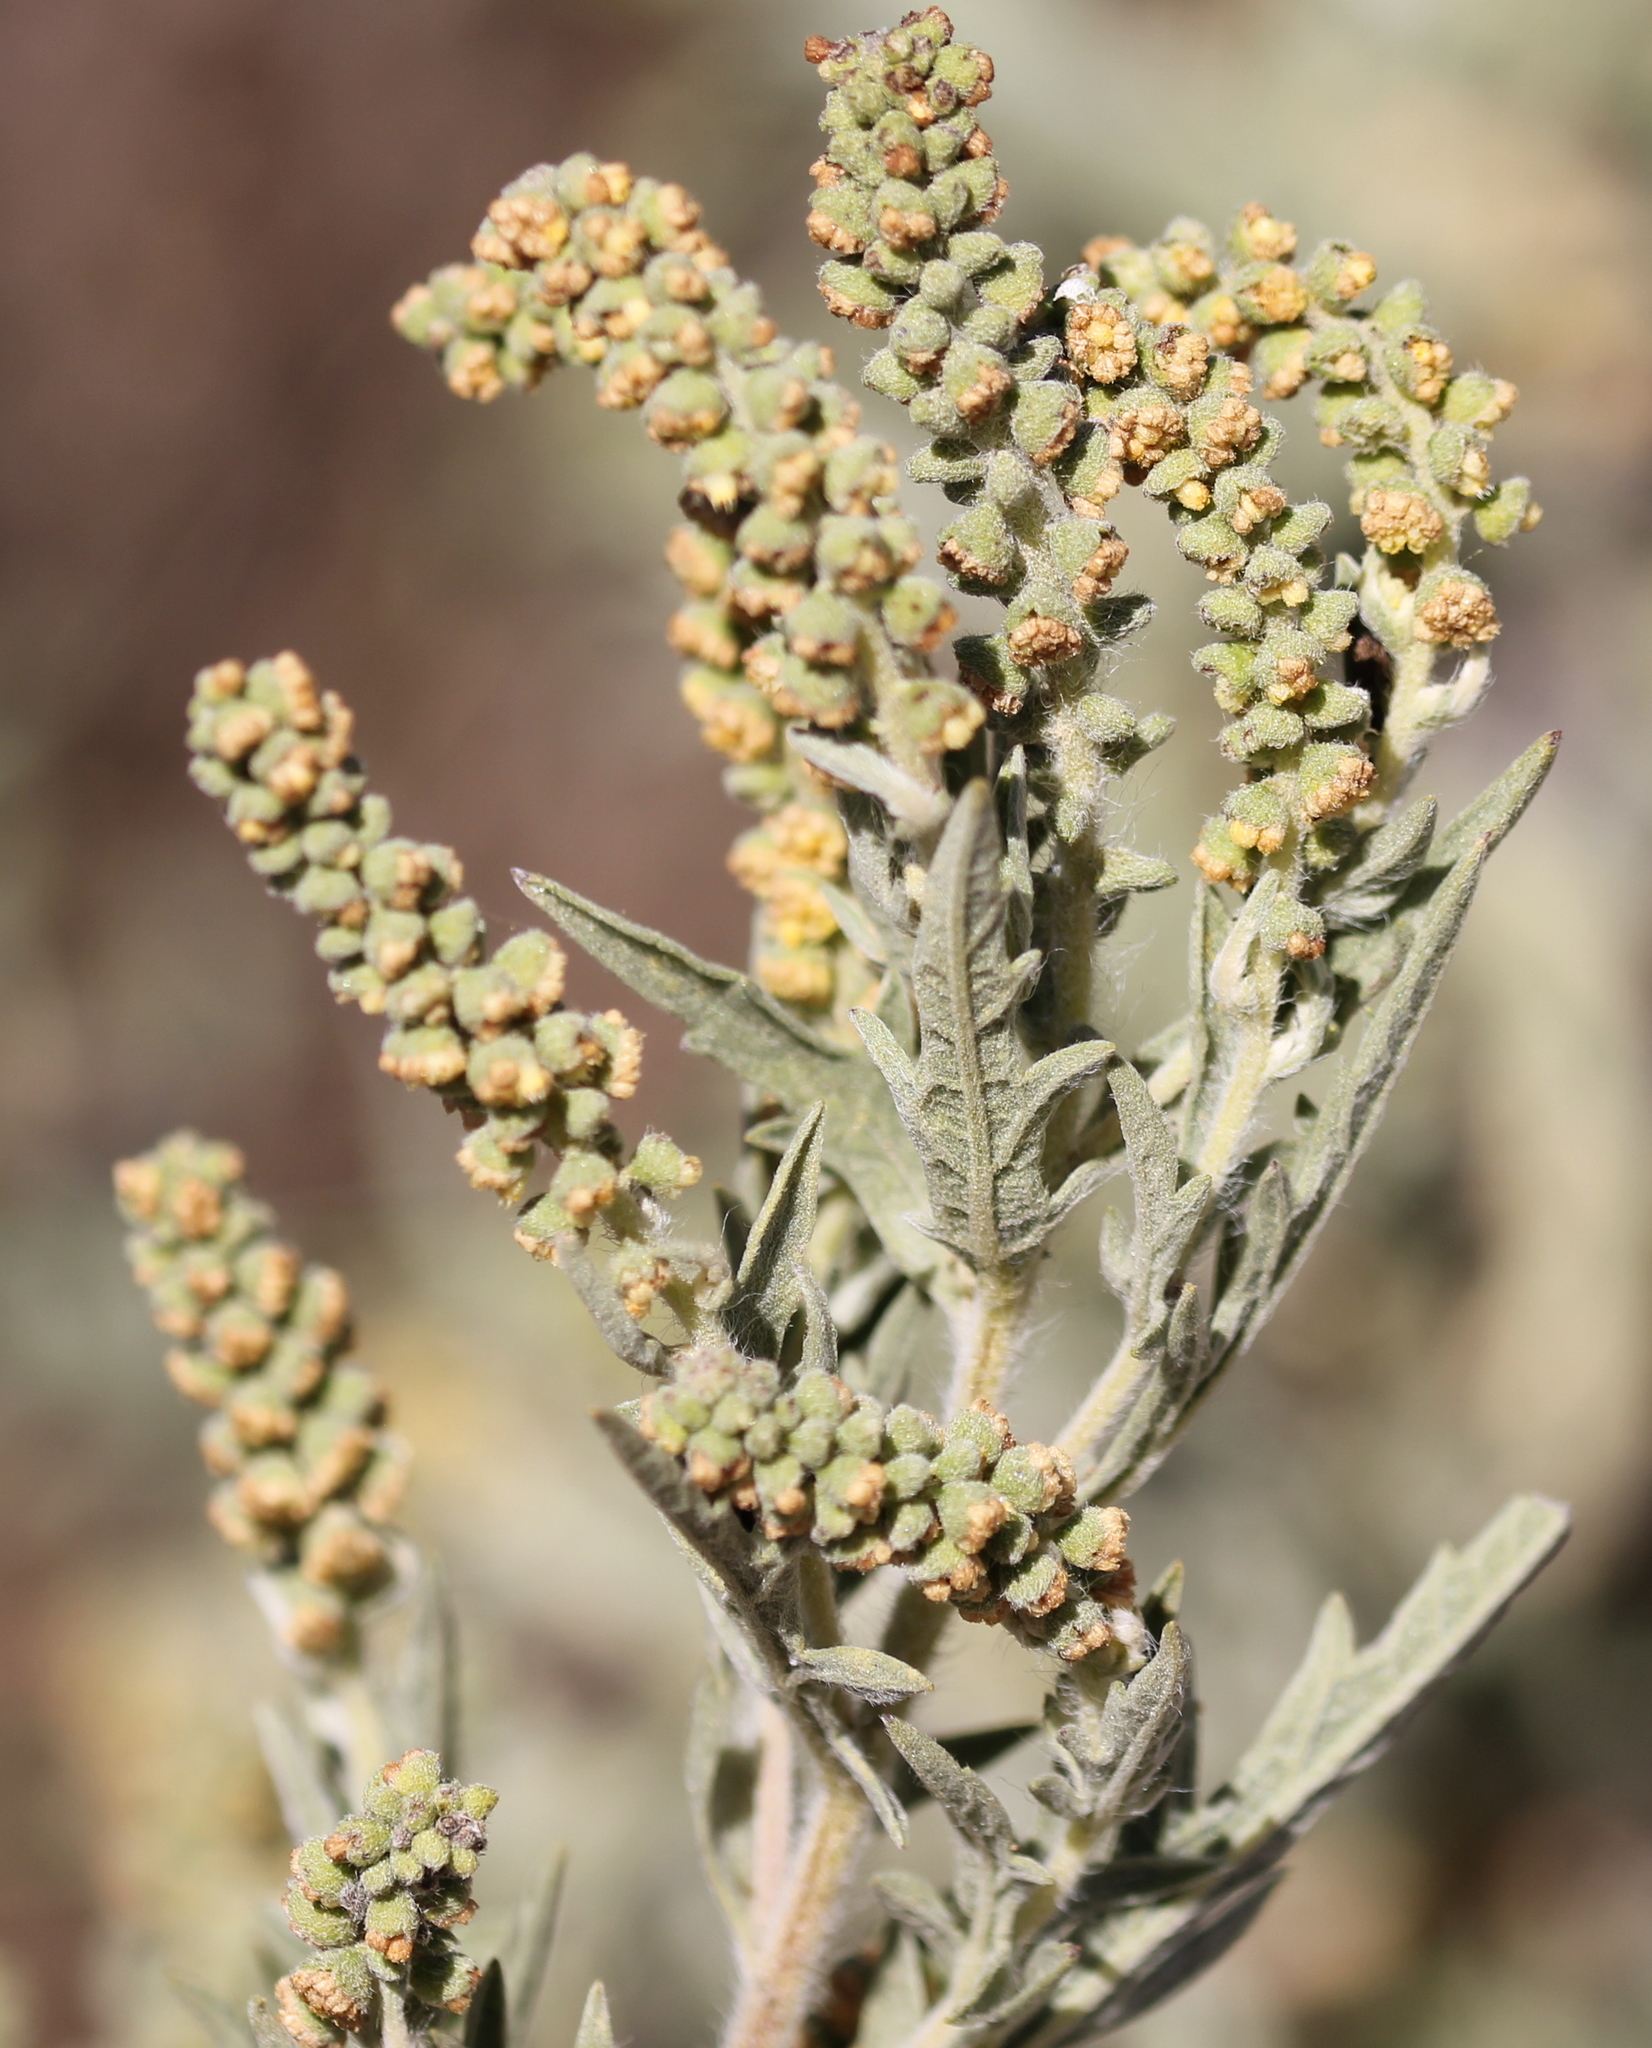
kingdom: Plantae
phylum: Tracheophyta
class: Magnoliopsida
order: Asterales
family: Asteraceae
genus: Ambrosia
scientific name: Ambrosia psilostachya
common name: Perennial ragweed
